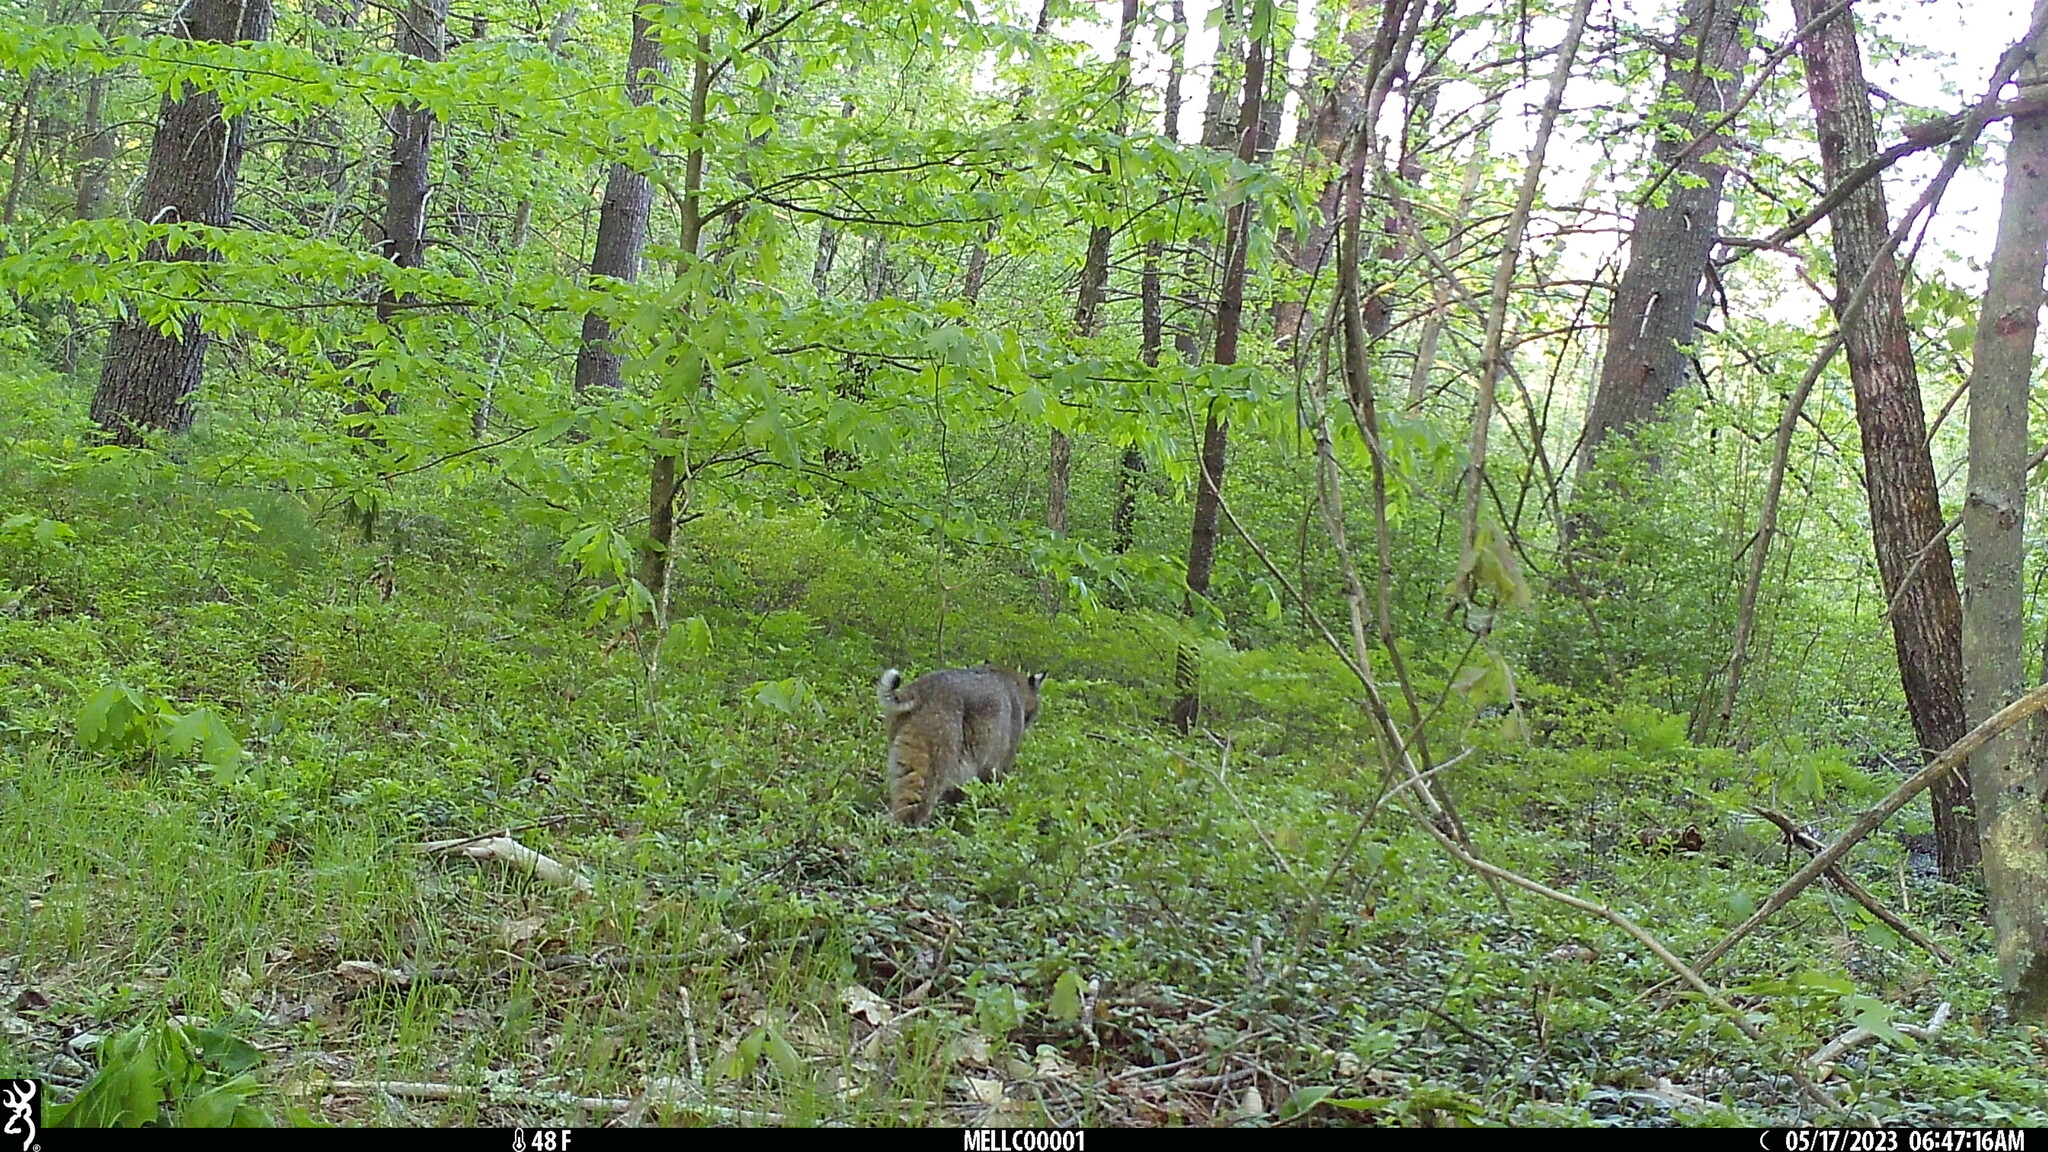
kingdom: Animalia
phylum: Chordata
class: Mammalia
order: Carnivora
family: Felidae
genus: Lynx
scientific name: Lynx rufus
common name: Bobcat
